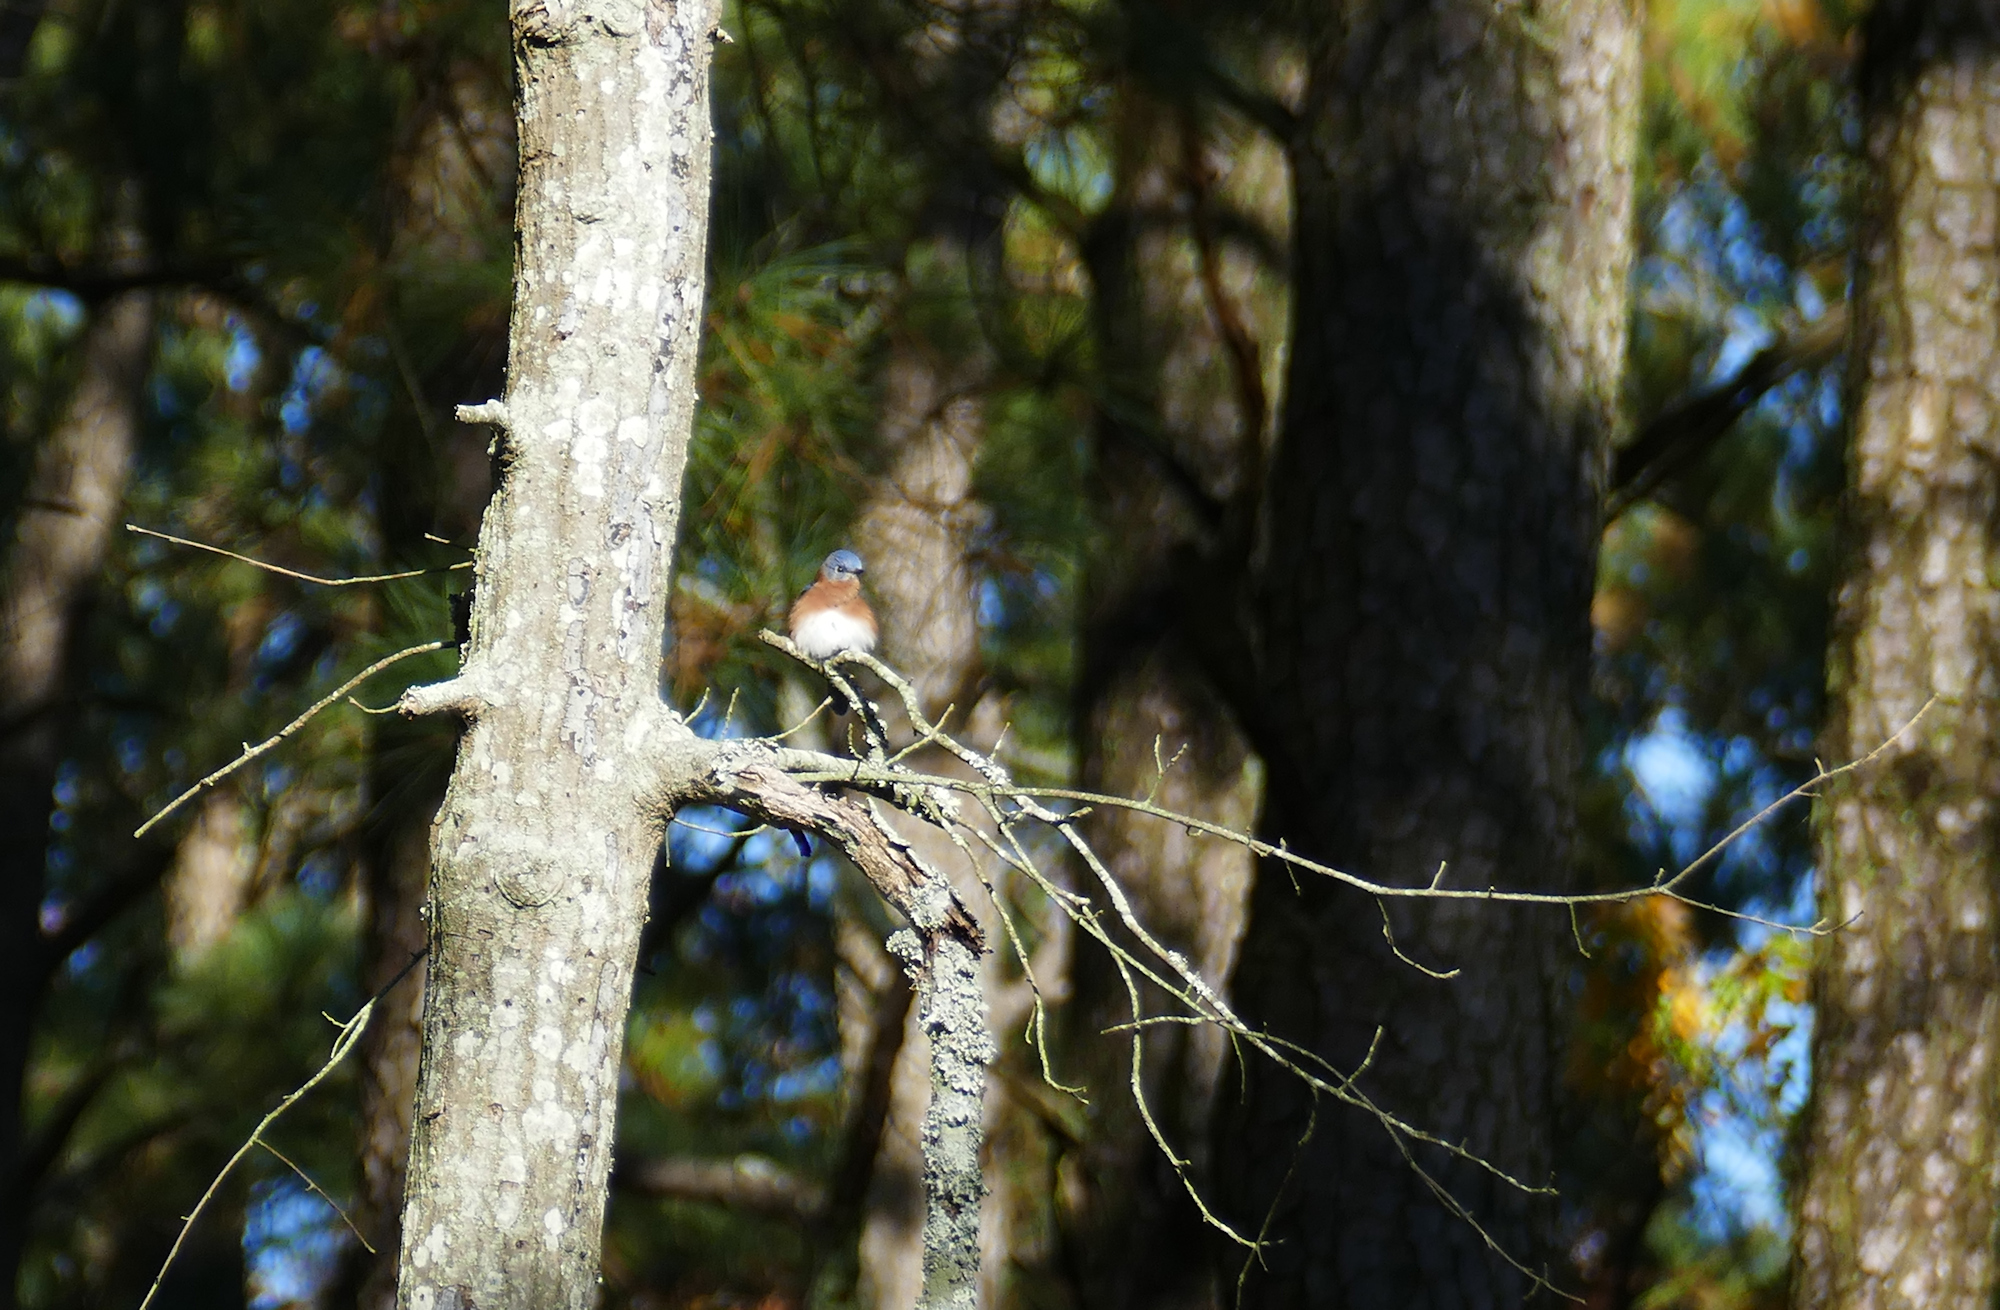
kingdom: Animalia
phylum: Chordata
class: Aves
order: Passeriformes
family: Turdidae
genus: Sialia
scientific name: Sialia sialis
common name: Eastern bluebird
